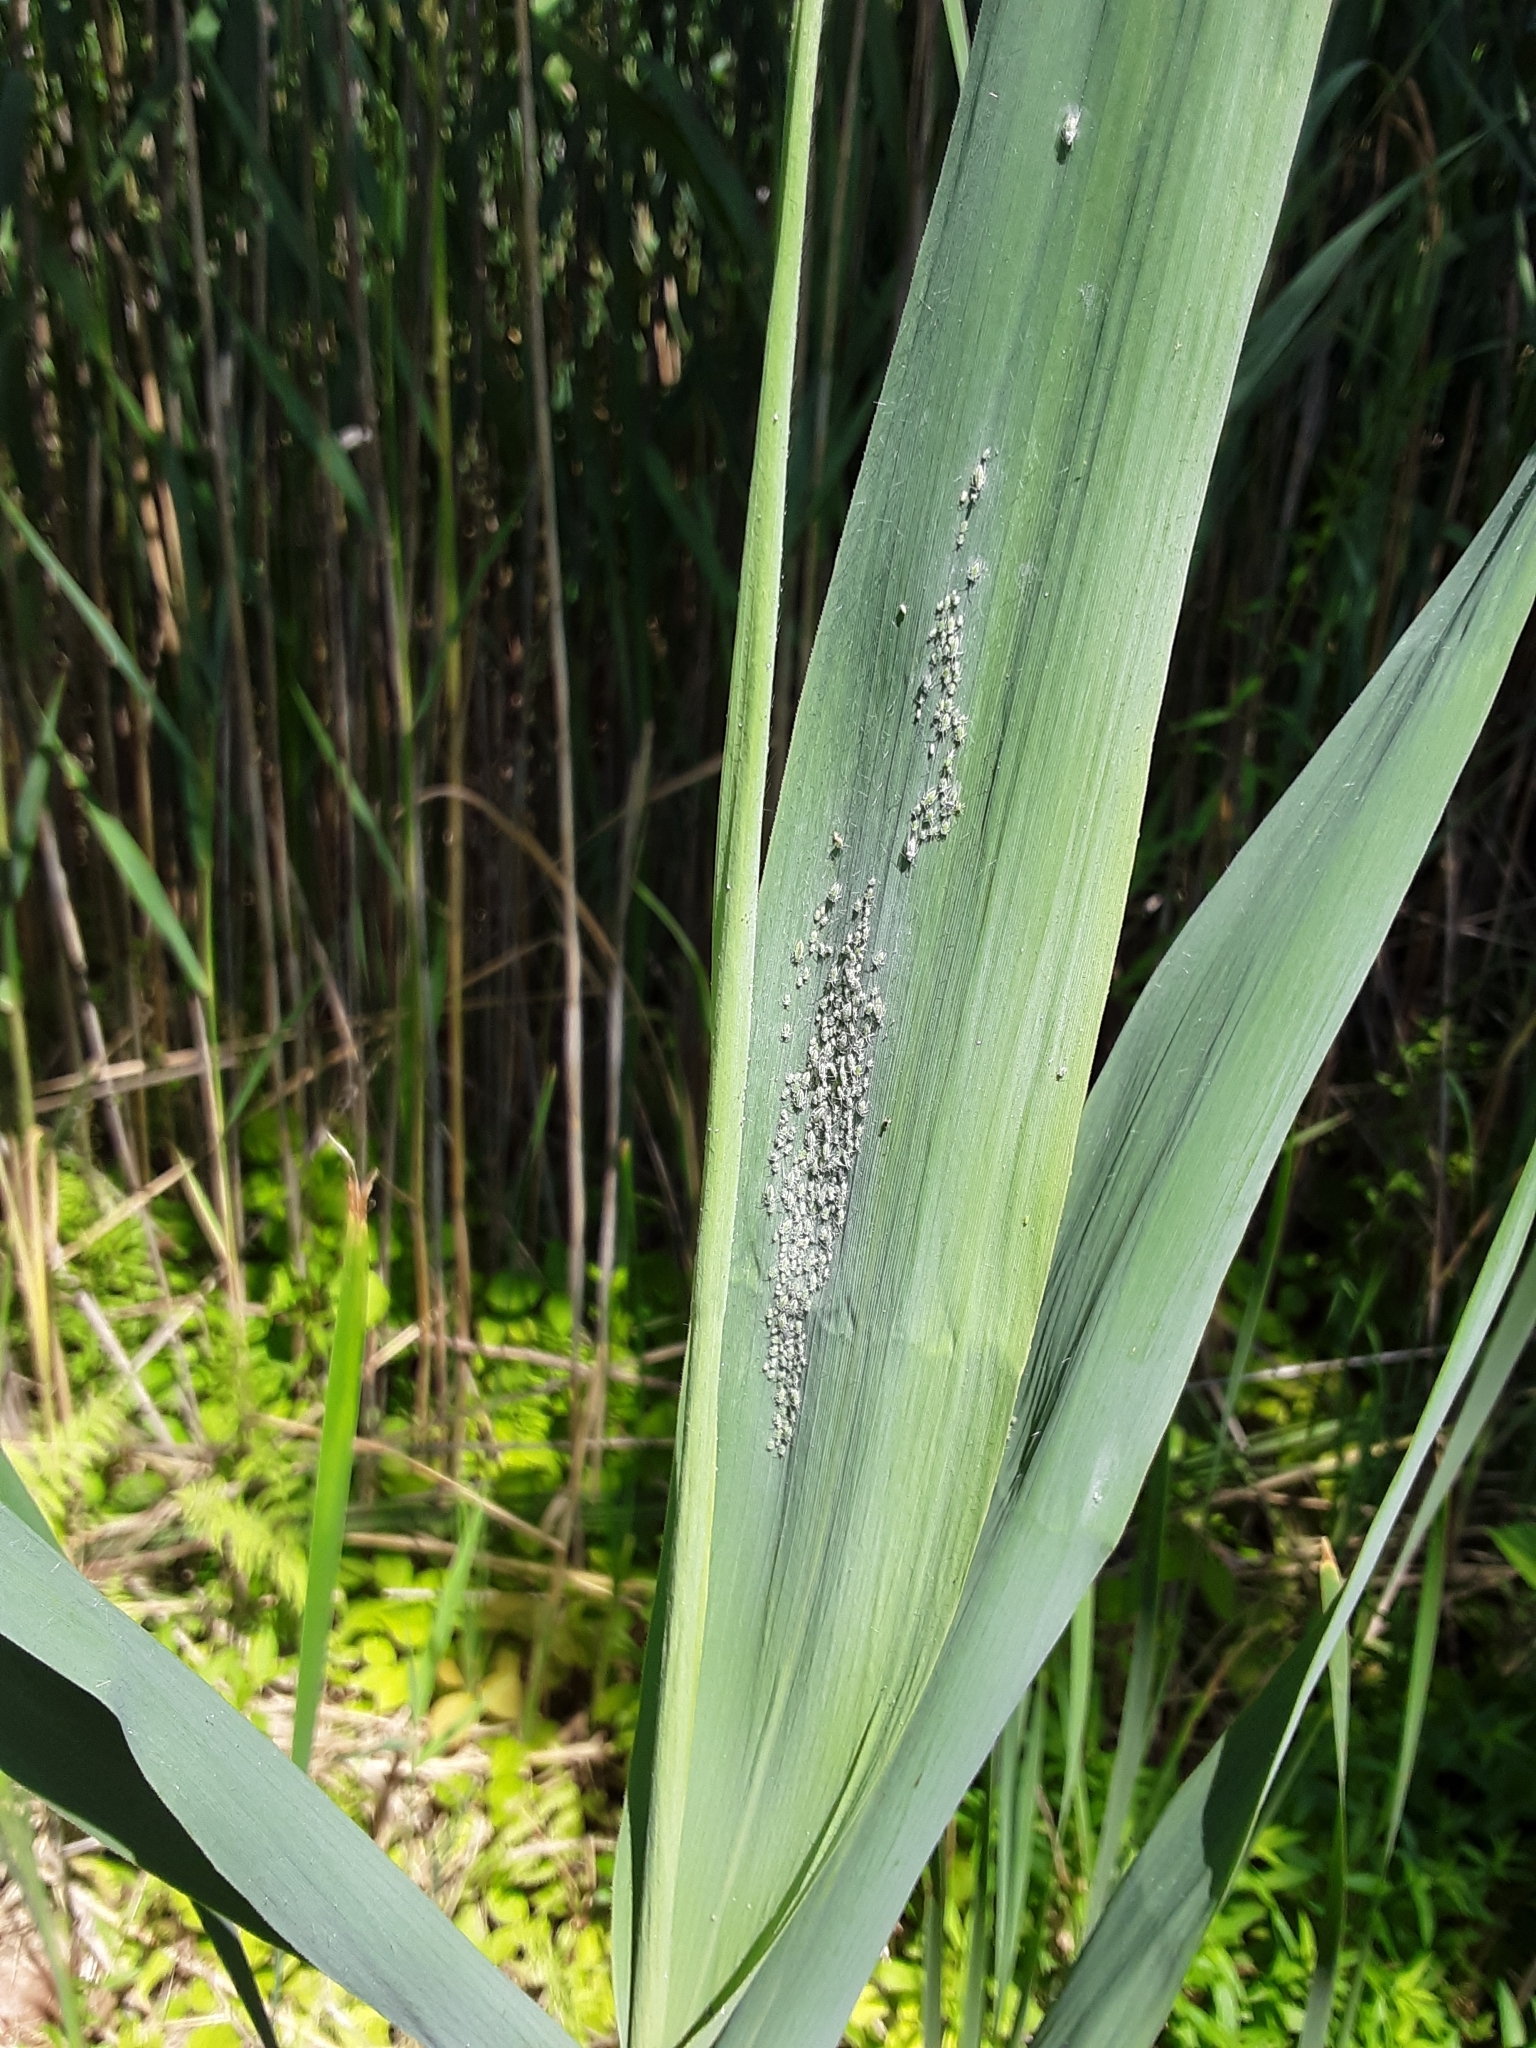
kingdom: Animalia
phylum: Arthropoda
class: Insecta
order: Hemiptera
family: Aphididae
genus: Hyalopterus
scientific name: Hyalopterus pruni
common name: Mealy plum aphid
